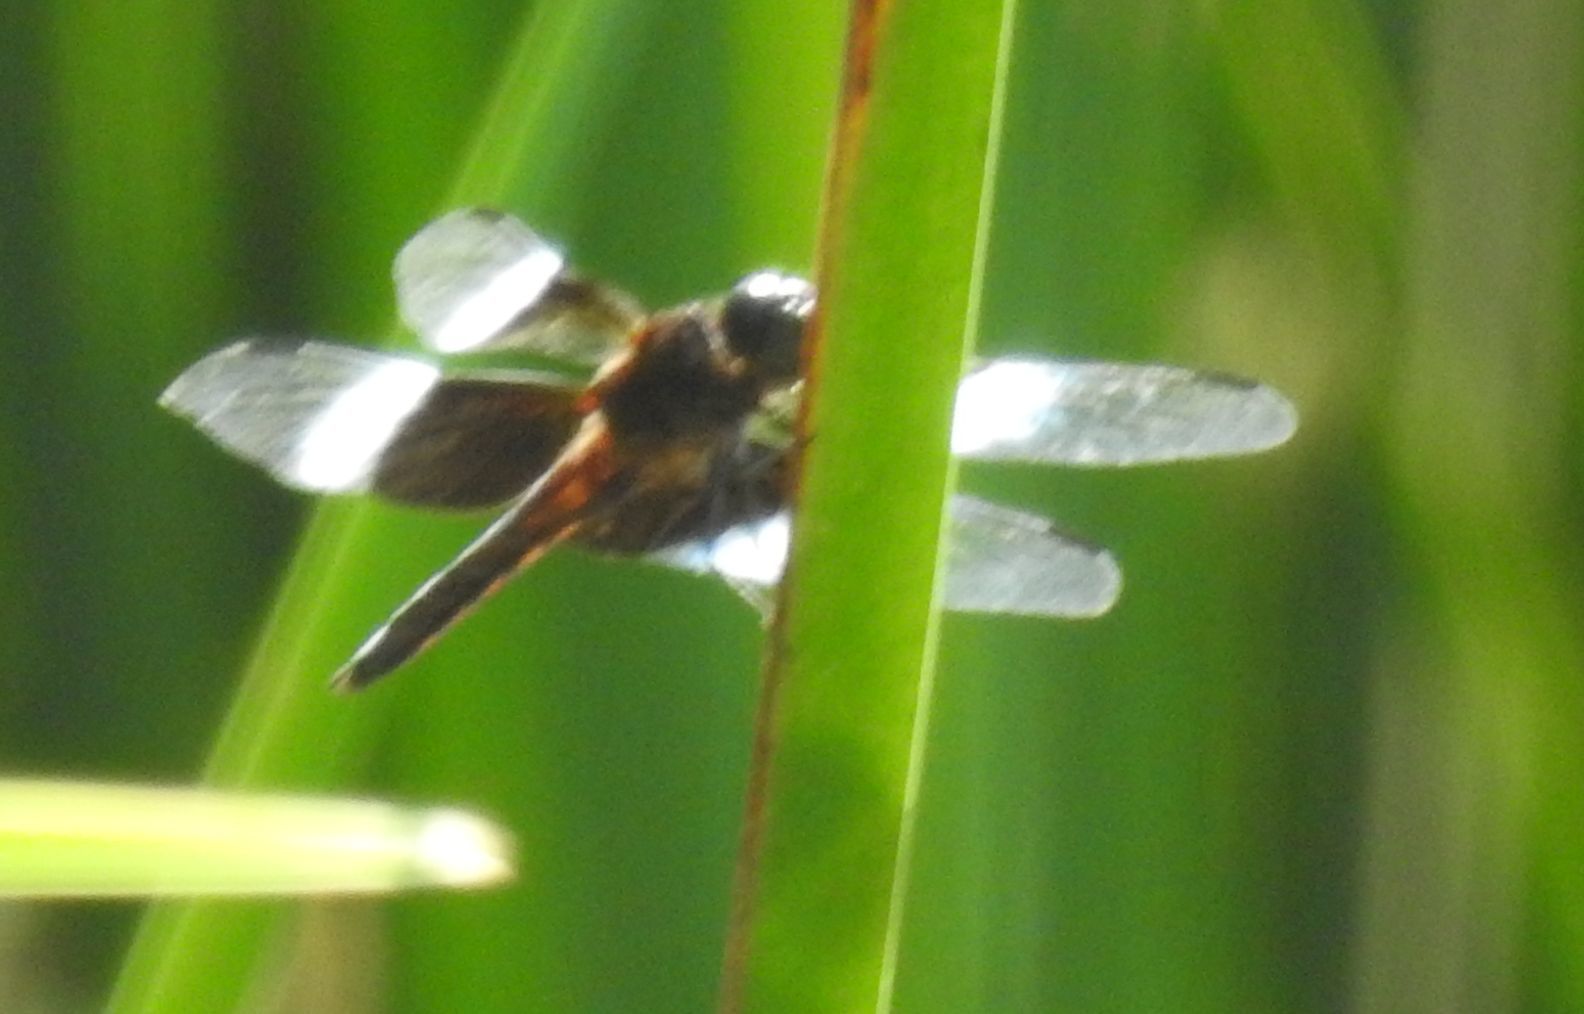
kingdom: Animalia
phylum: Arthropoda
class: Insecta
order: Odonata
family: Libellulidae
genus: Libellula
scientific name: Libellula luctuosa
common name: Widow skimmer
